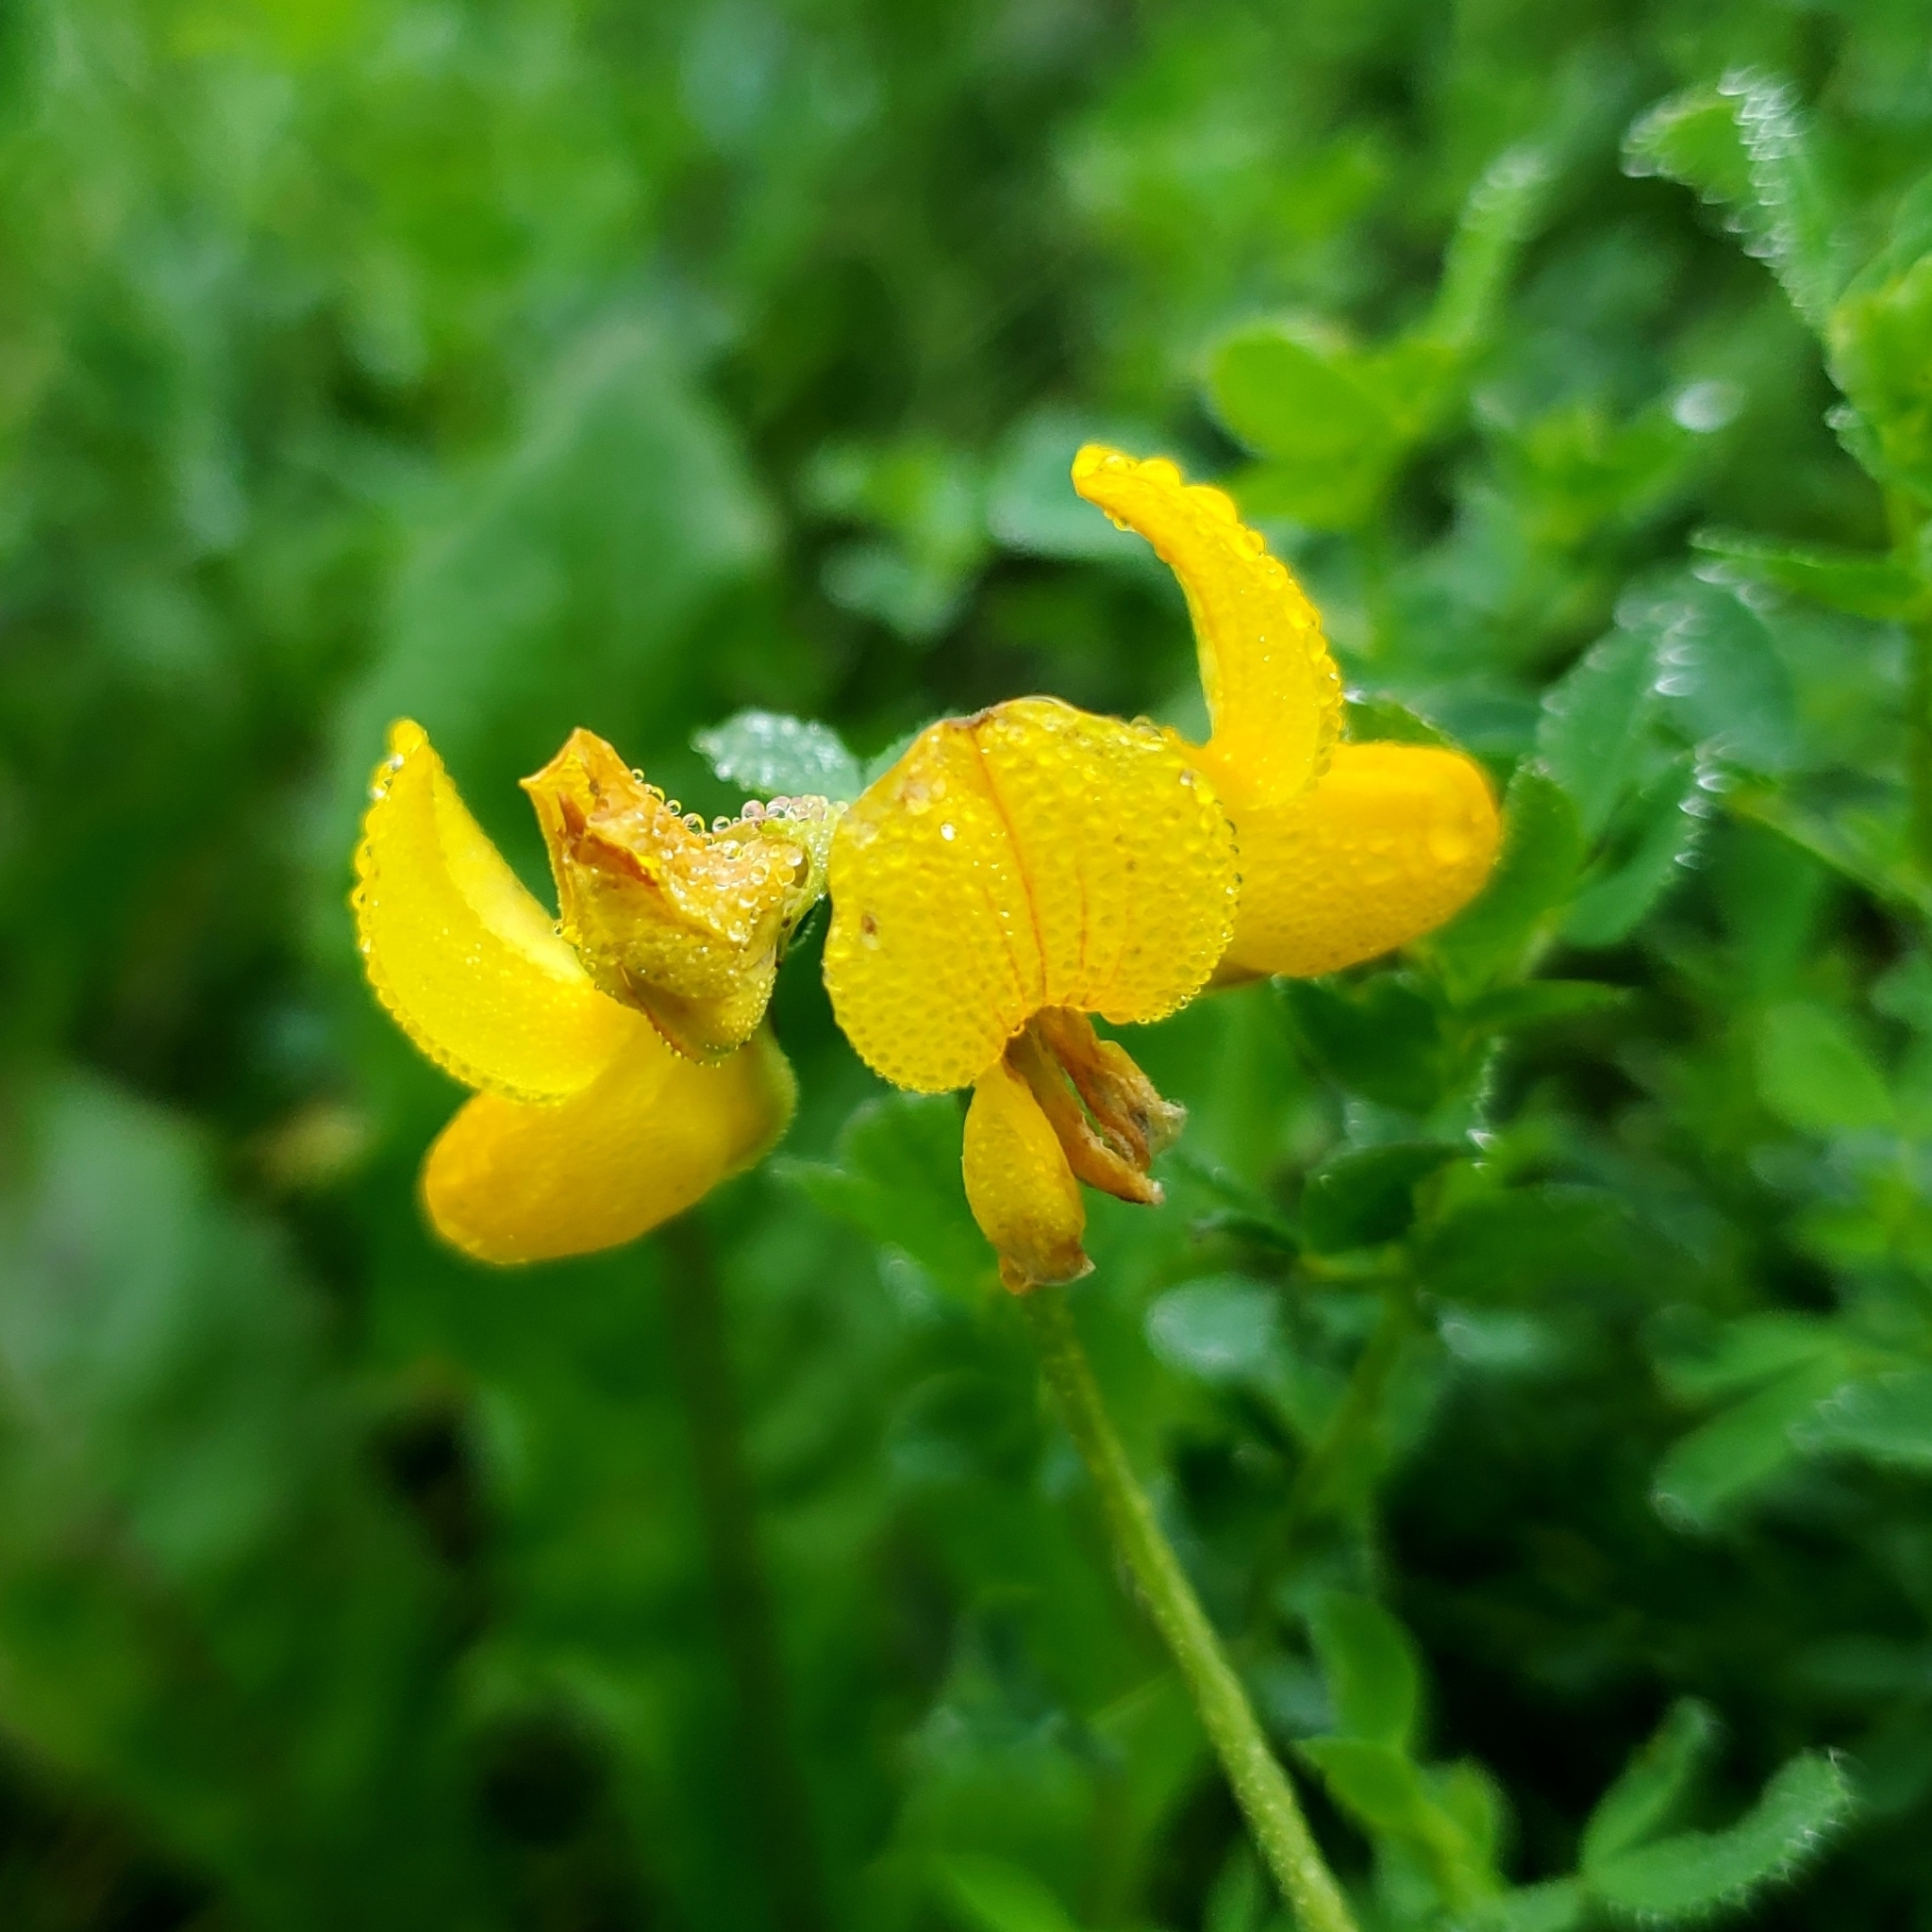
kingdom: Plantae
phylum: Tracheophyta
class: Magnoliopsida
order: Fabales
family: Fabaceae
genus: Lotus
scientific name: Lotus corniculatus
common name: Common bird's-foot-trefoil
